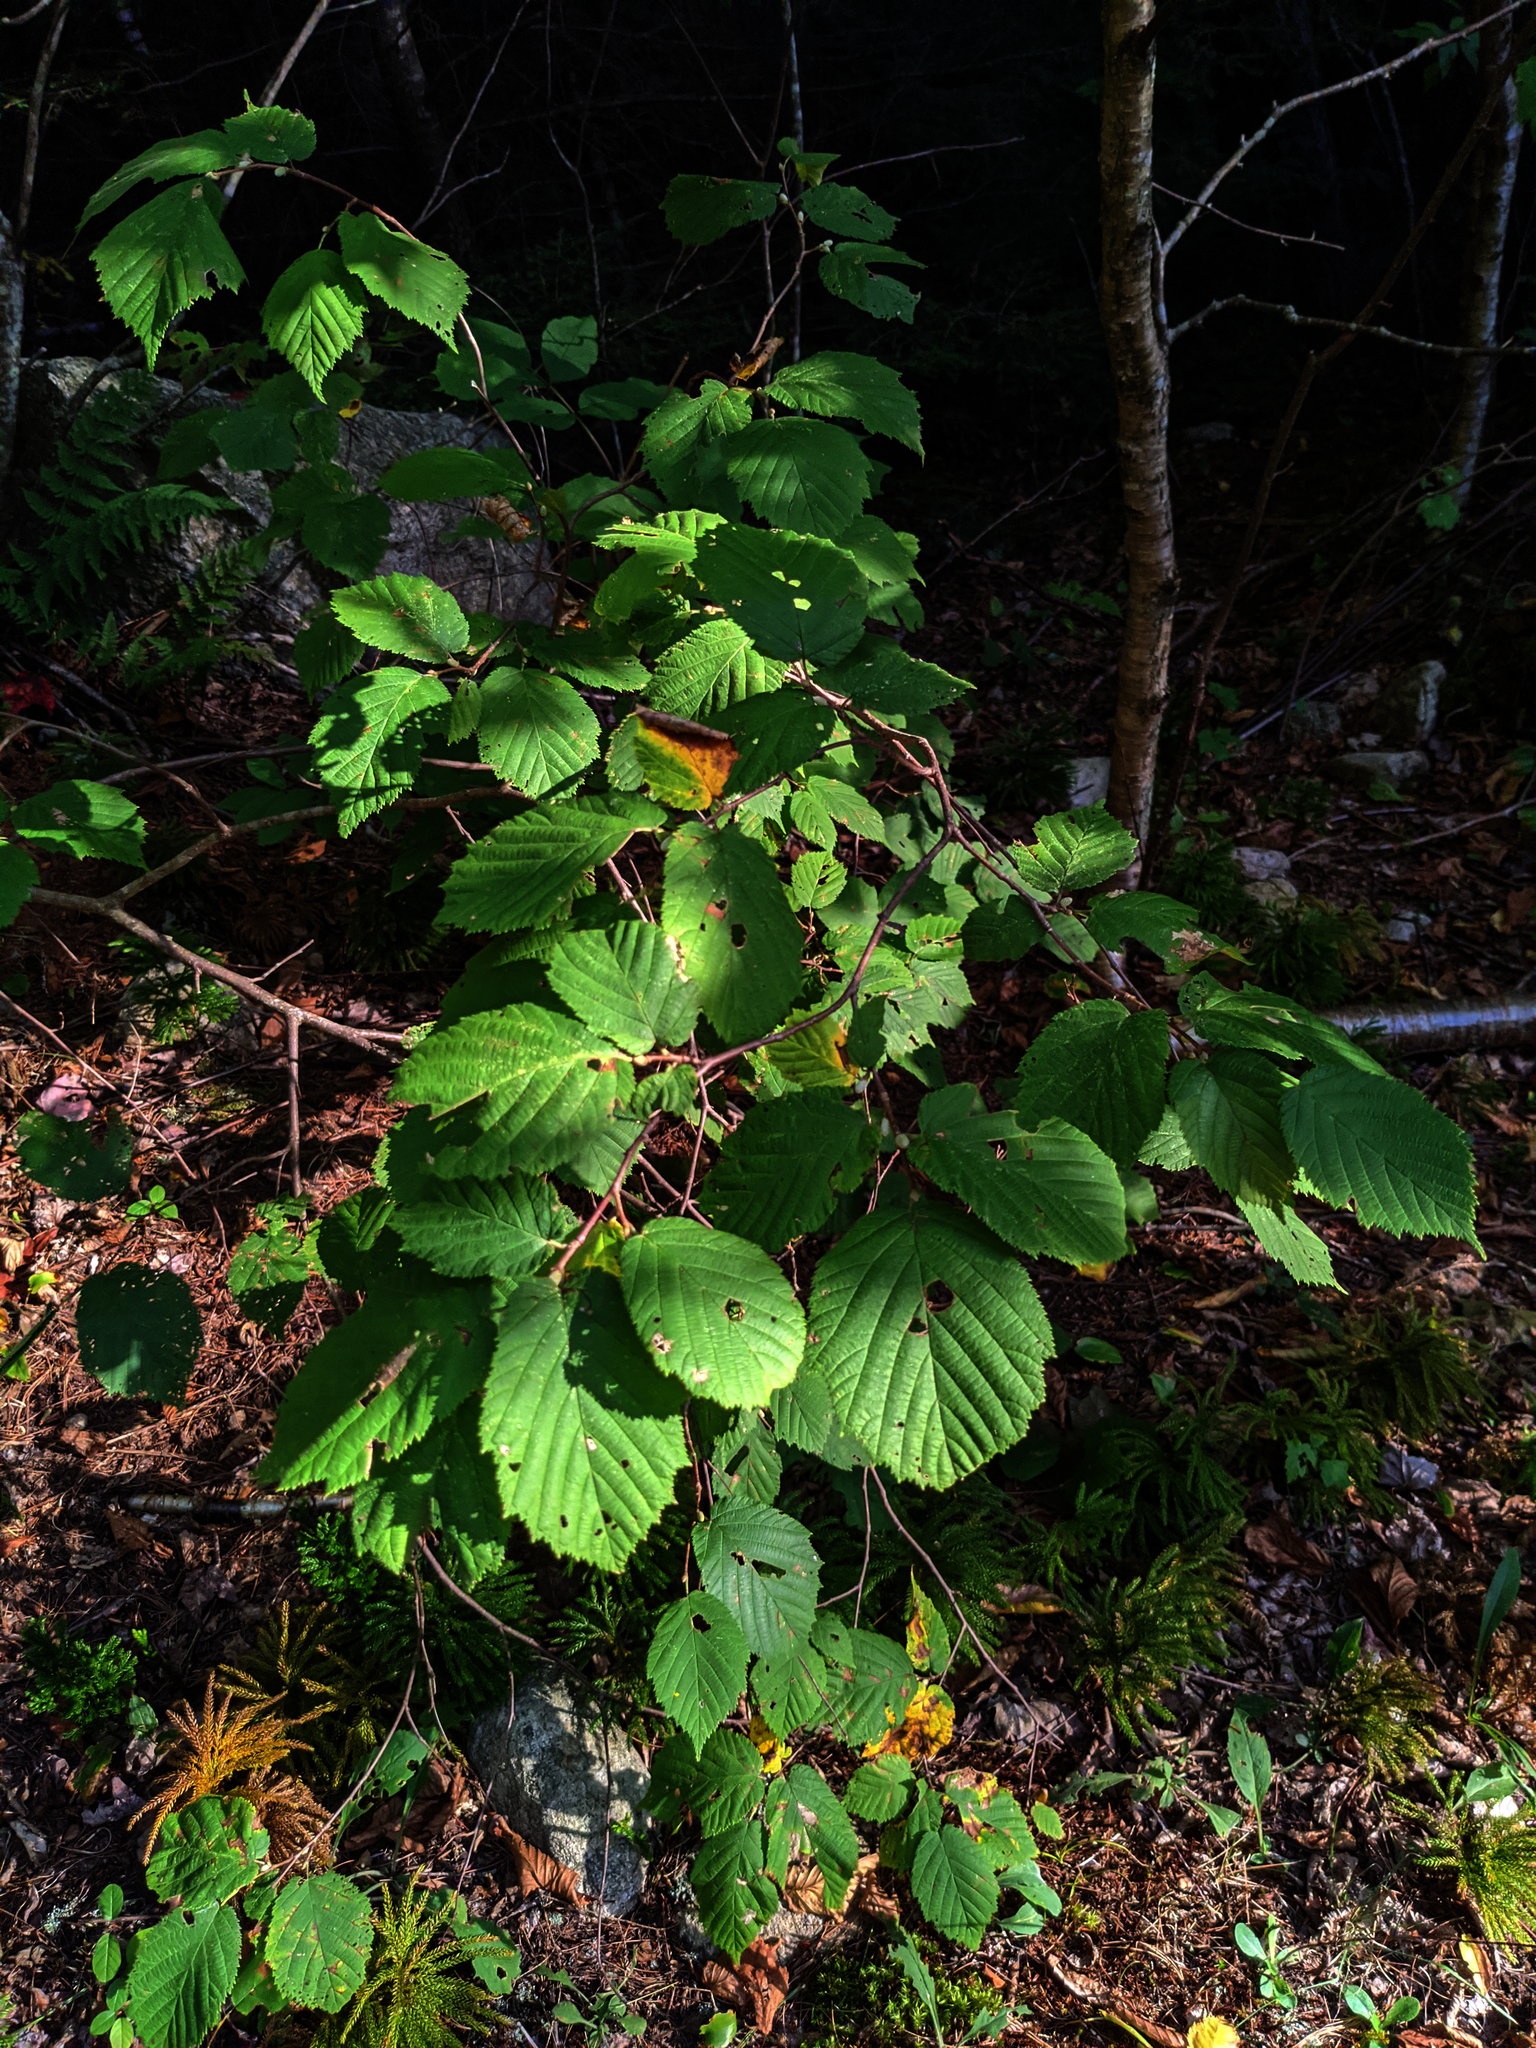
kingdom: Plantae
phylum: Tracheophyta
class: Magnoliopsida
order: Fagales
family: Betulaceae
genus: Corylus
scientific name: Corylus cornuta
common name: Beaked hazel
